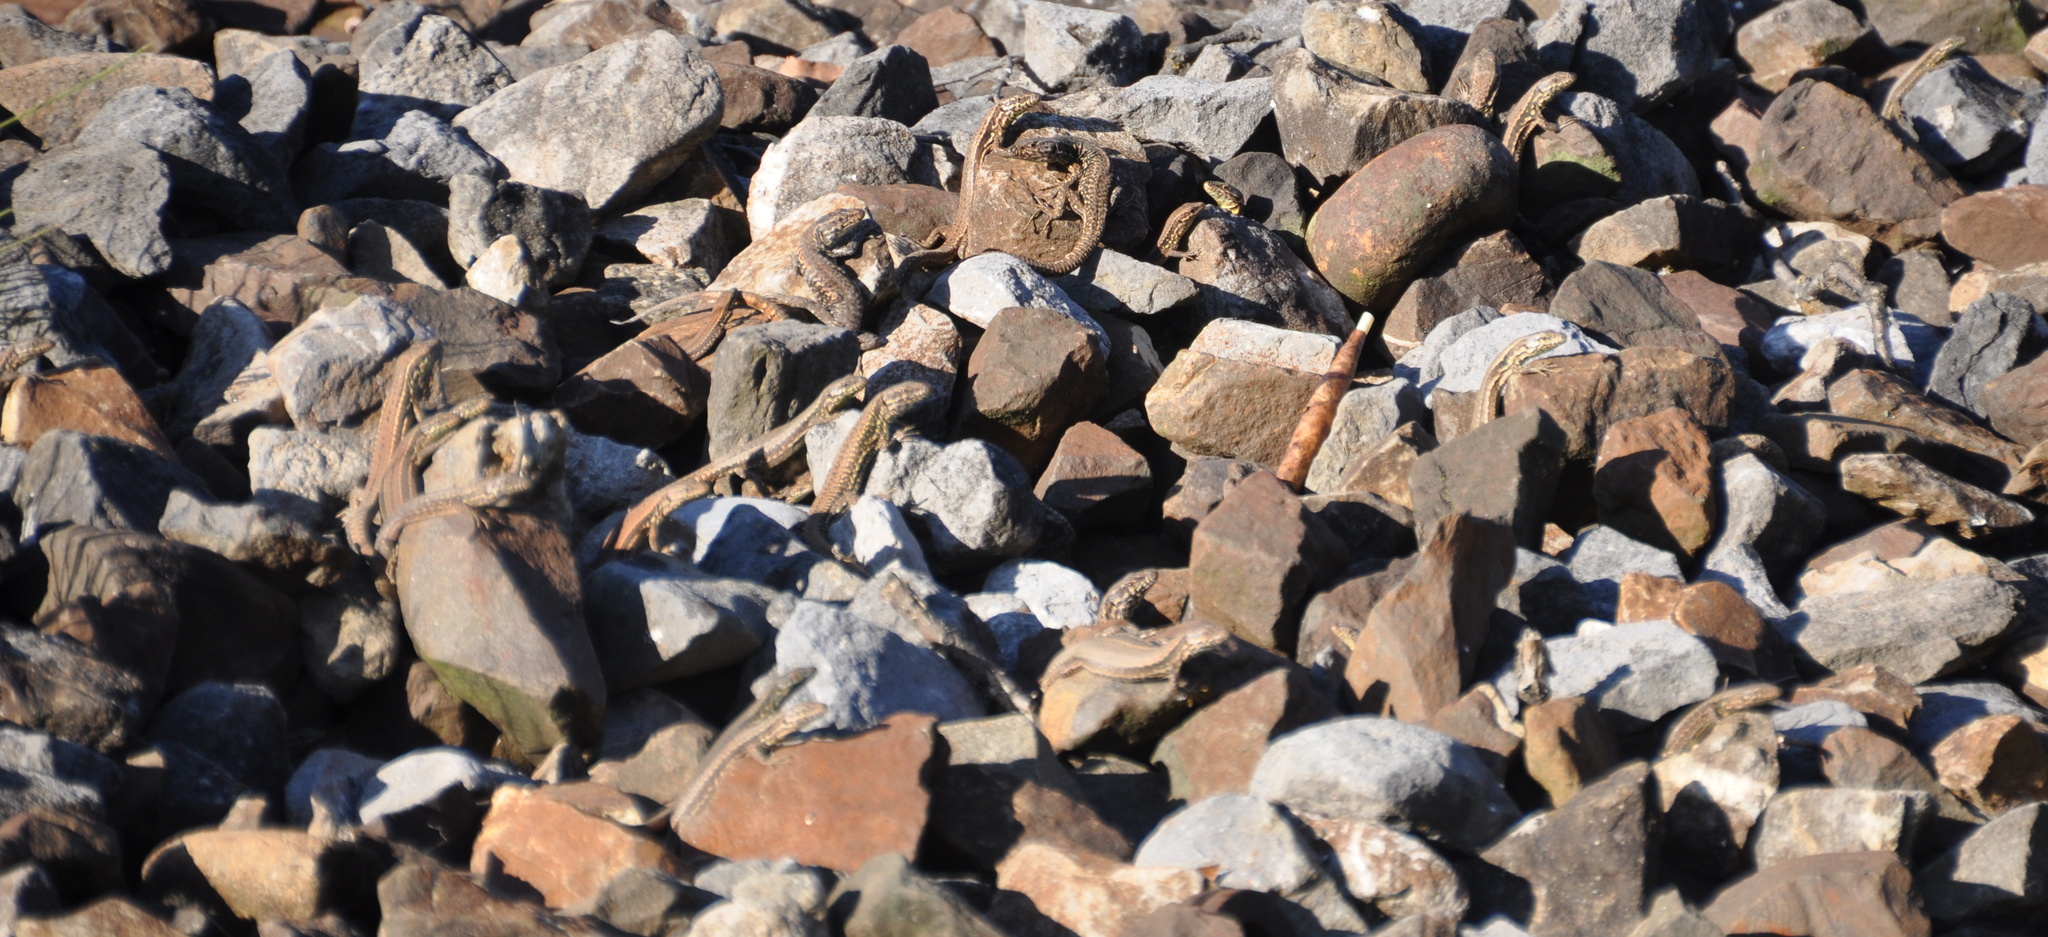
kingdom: Animalia
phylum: Chordata
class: Squamata
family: Lacertidae
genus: Podarcis
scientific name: Podarcis muralis
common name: Common wall lizard
